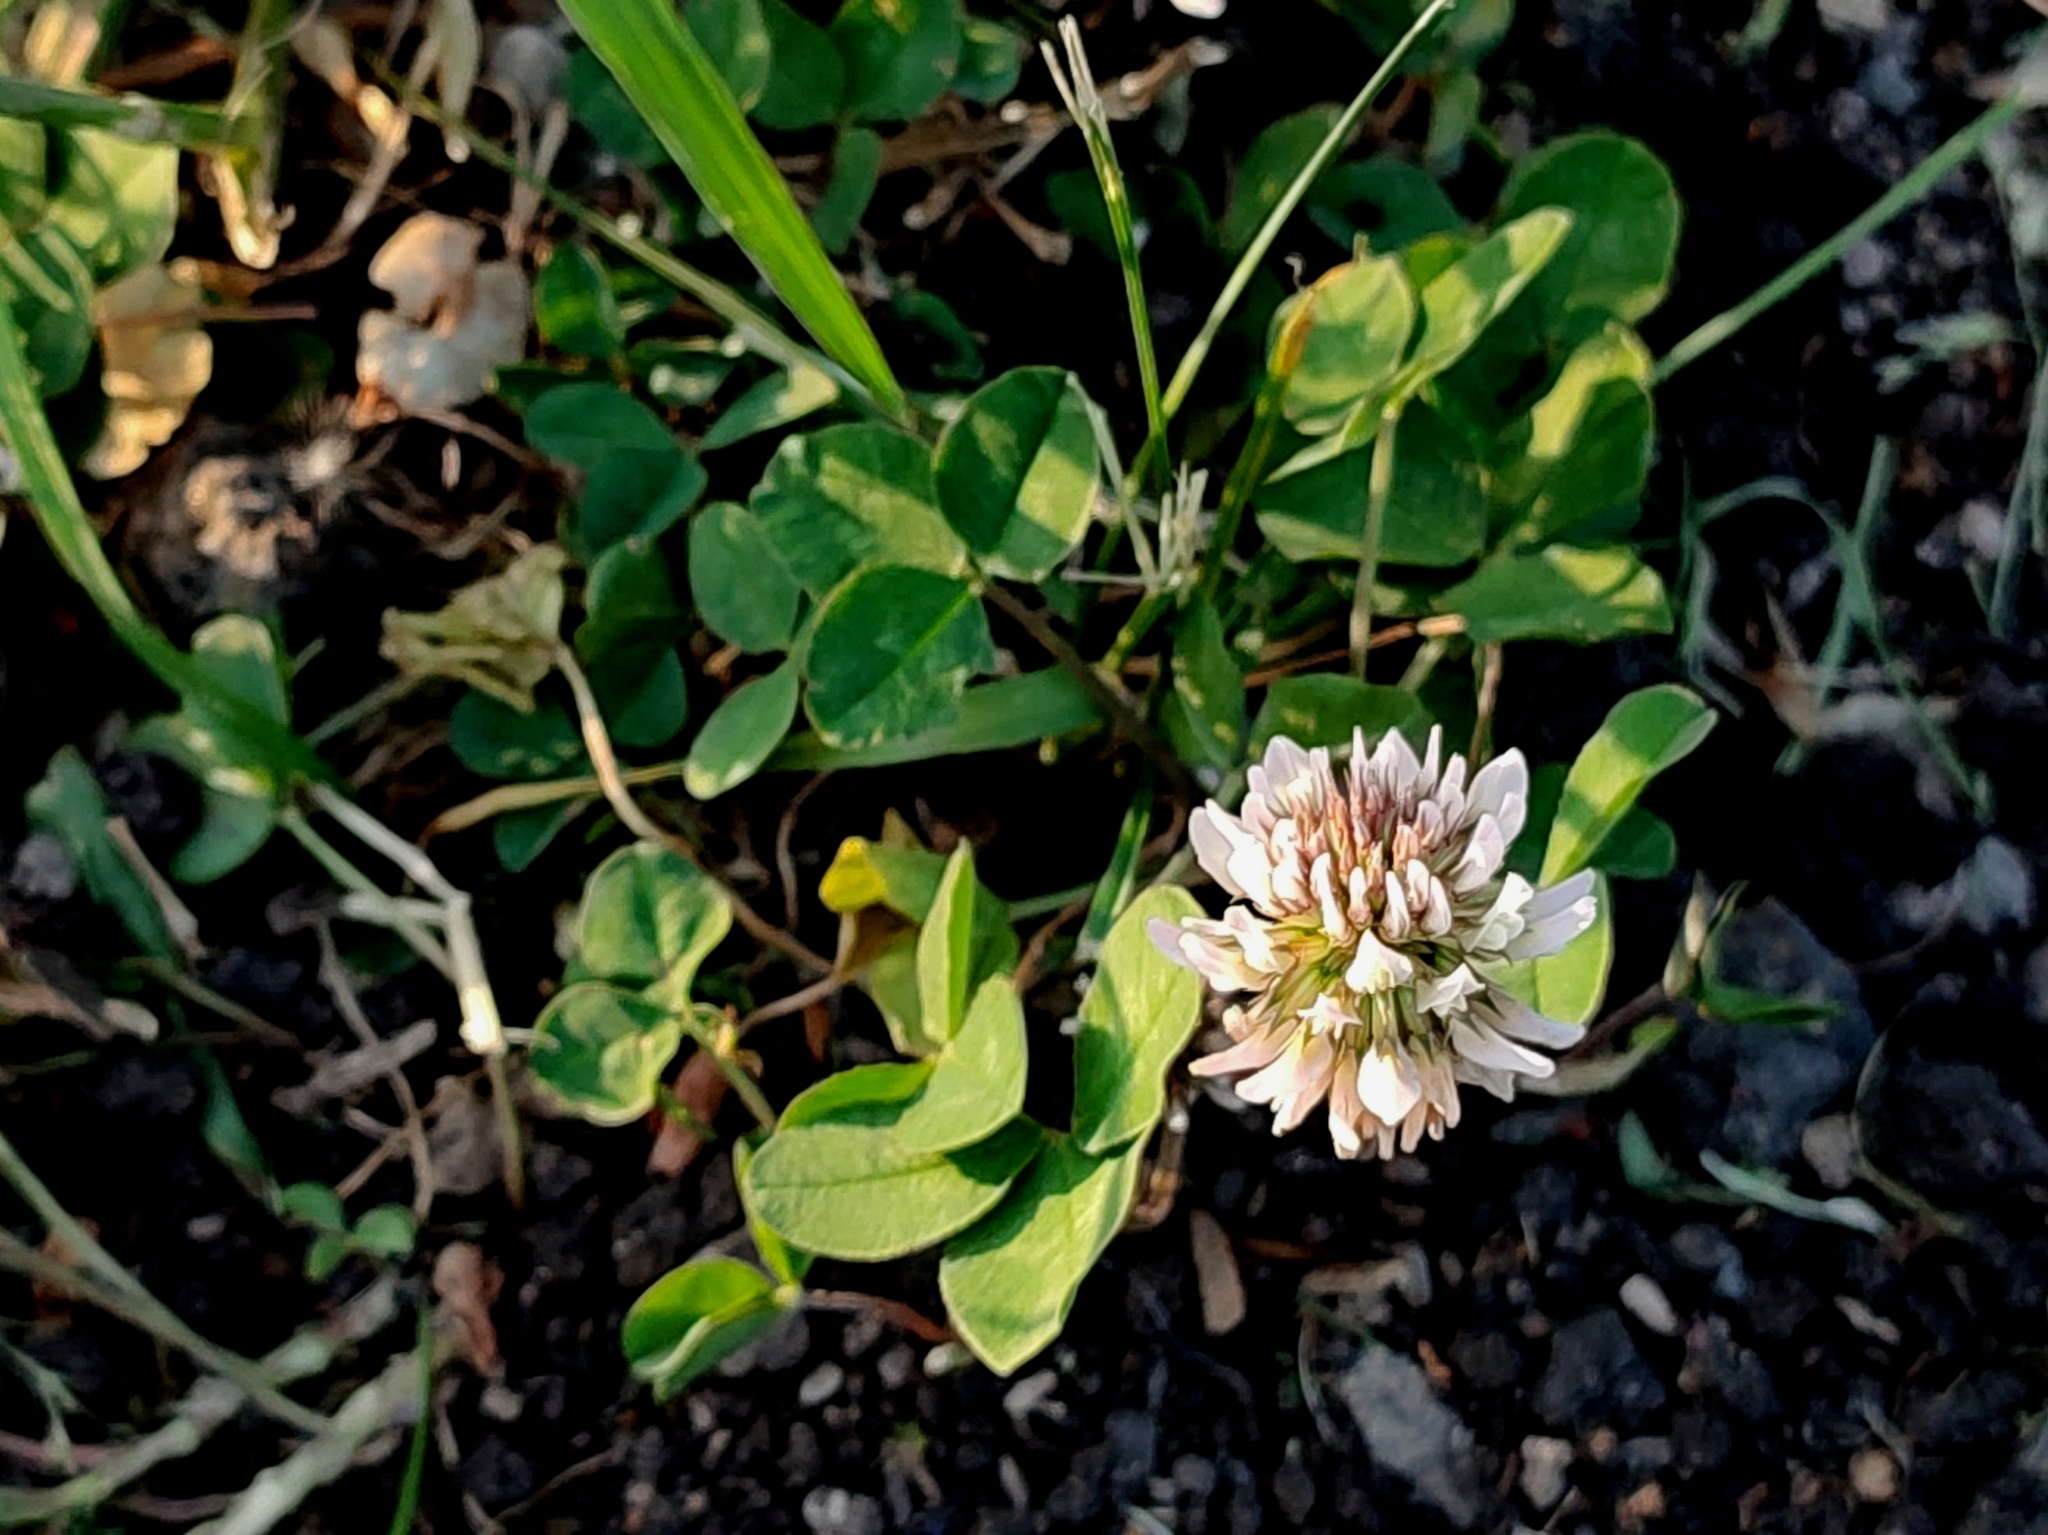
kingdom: Plantae
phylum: Tracheophyta
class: Magnoliopsida
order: Fabales
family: Fabaceae
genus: Trifolium
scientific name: Trifolium repens
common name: White clover
